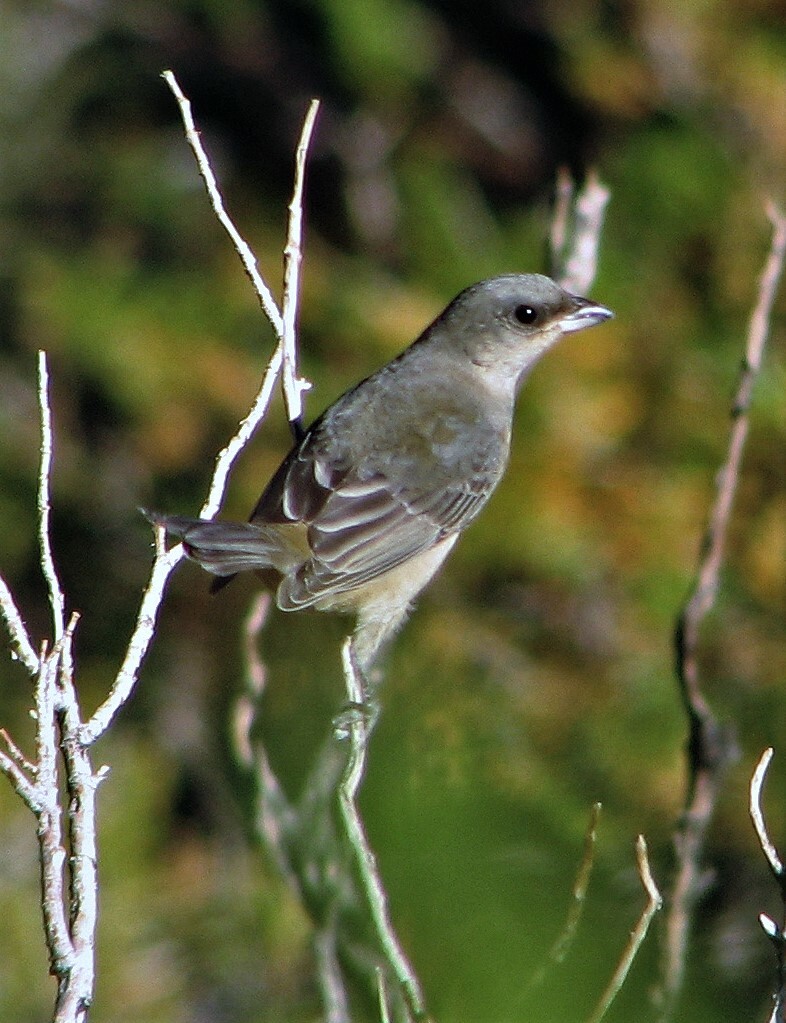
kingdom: Animalia
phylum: Chordata
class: Aves
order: Passeriformes
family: Thraupidae
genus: Rauenia
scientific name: Rauenia bonariensis
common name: Blue-and-yellow tanager
